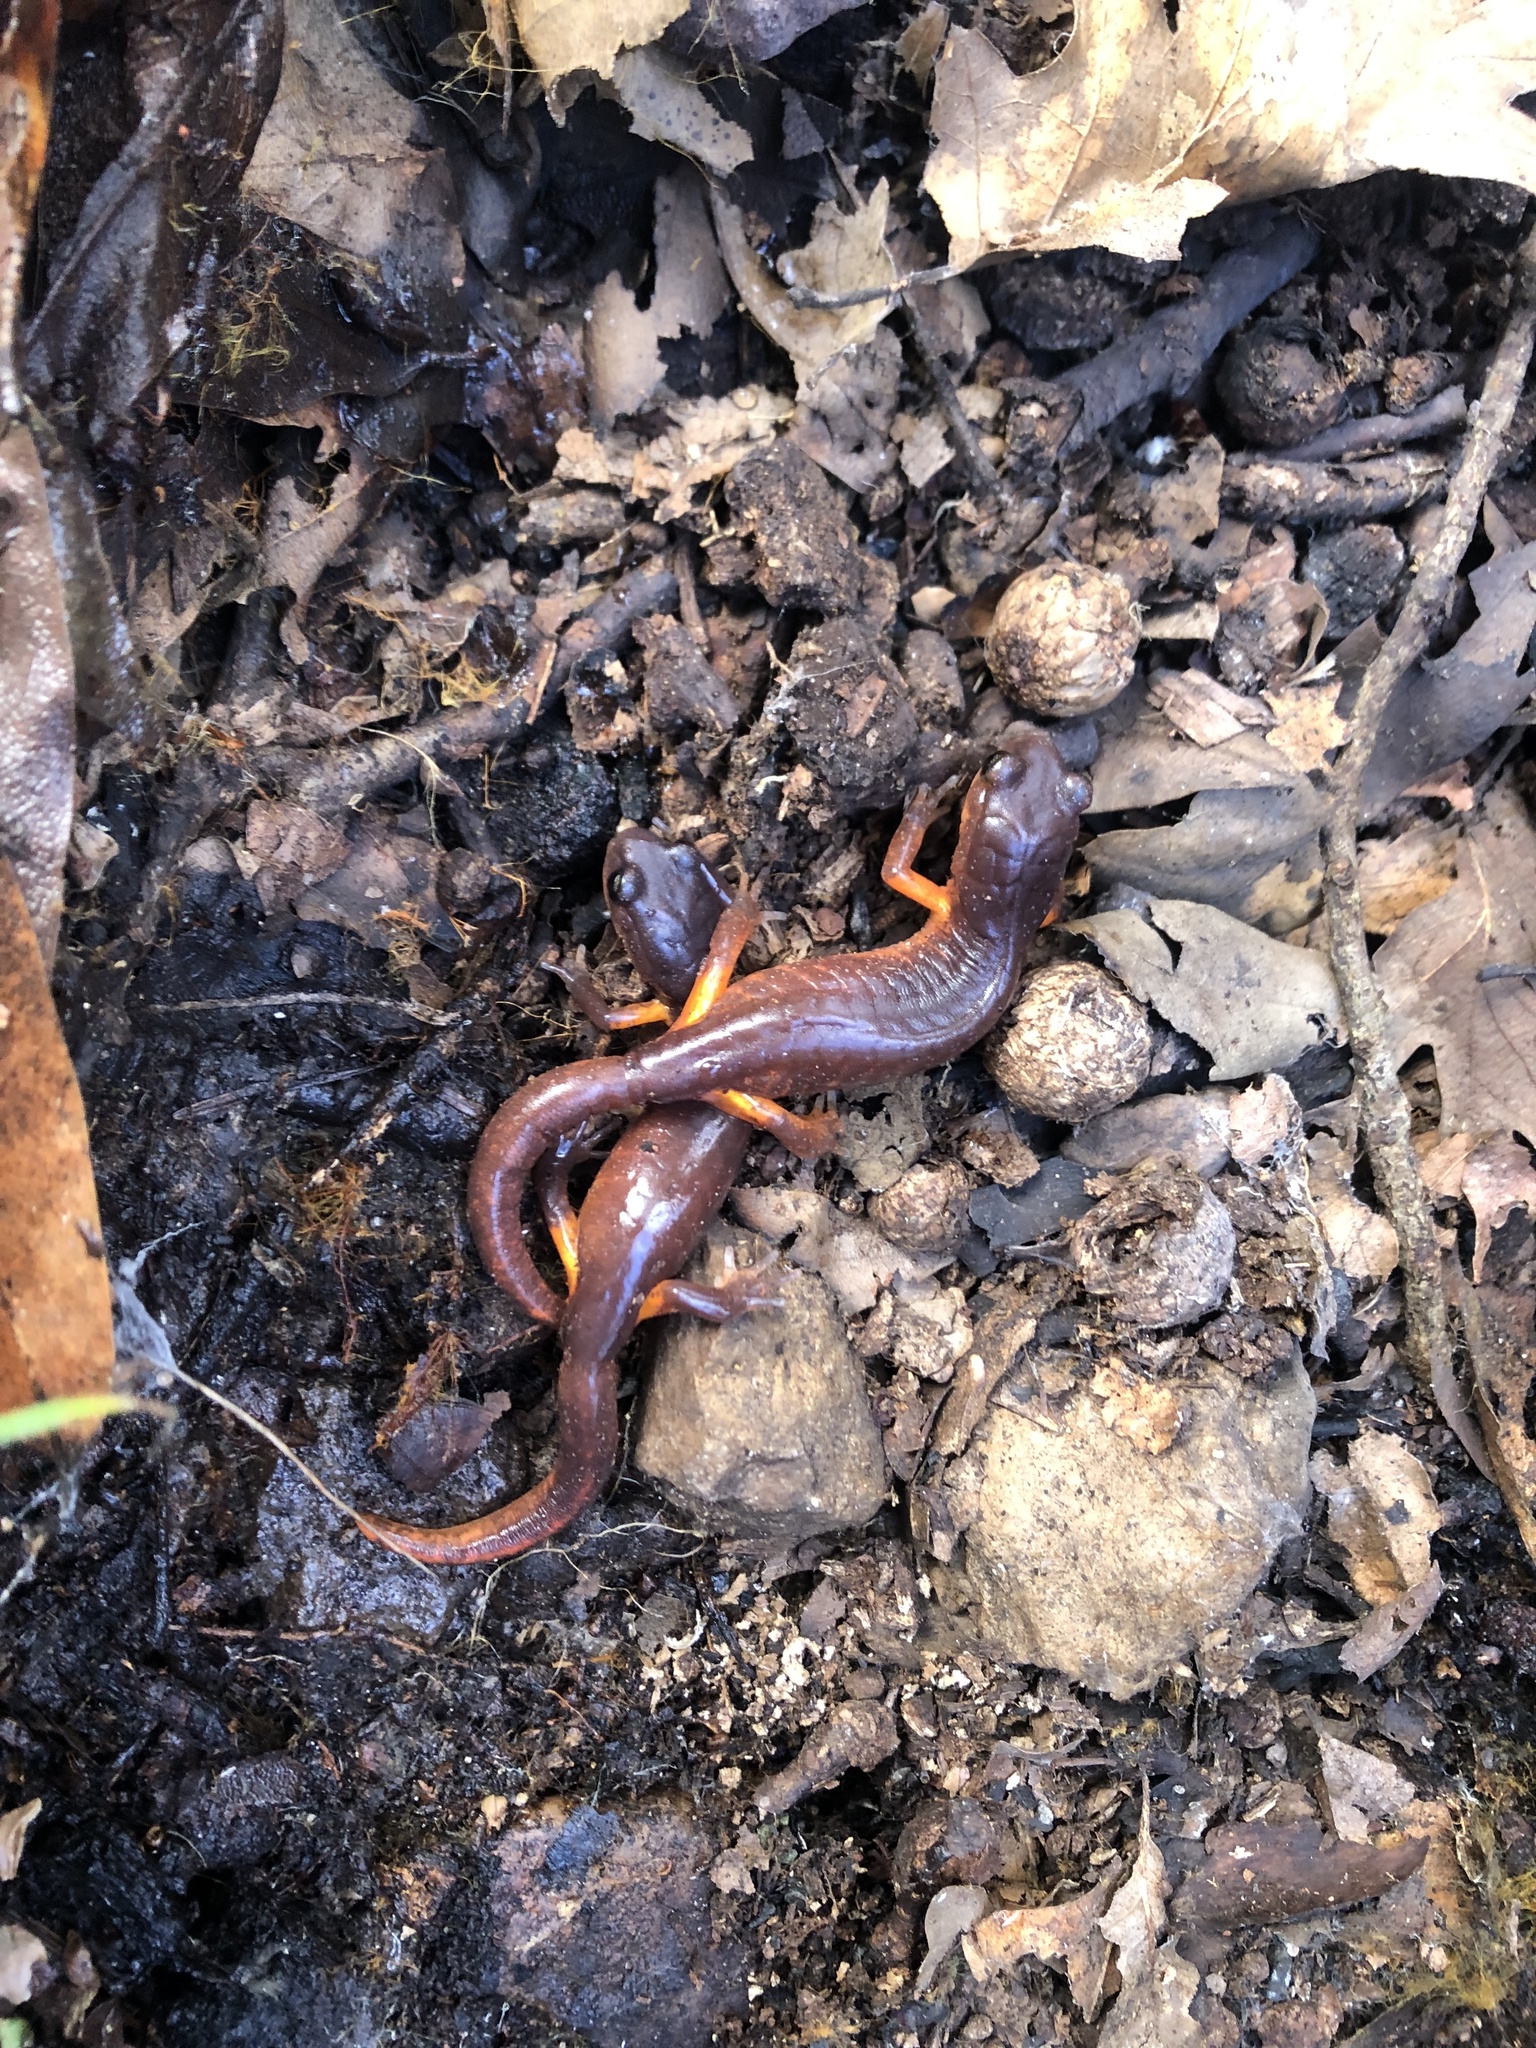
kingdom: Animalia
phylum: Chordata
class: Amphibia
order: Caudata
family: Plethodontidae
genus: Ensatina
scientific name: Ensatina eschscholtzii
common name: Ensatina
